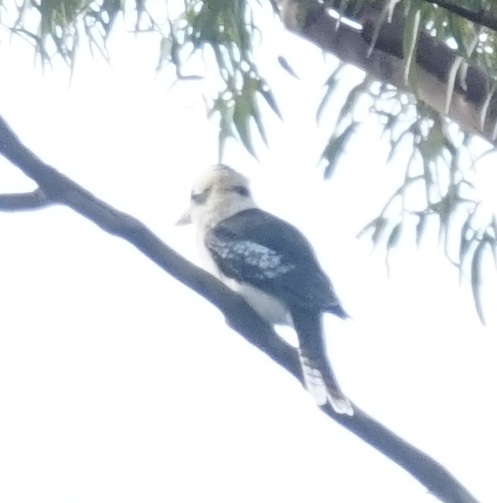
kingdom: Animalia
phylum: Chordata
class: Aves
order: Coraciiformes
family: Alcedinidae
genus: Dacelo
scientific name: Dacelo novaeguineae
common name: Laughing kookaburra
